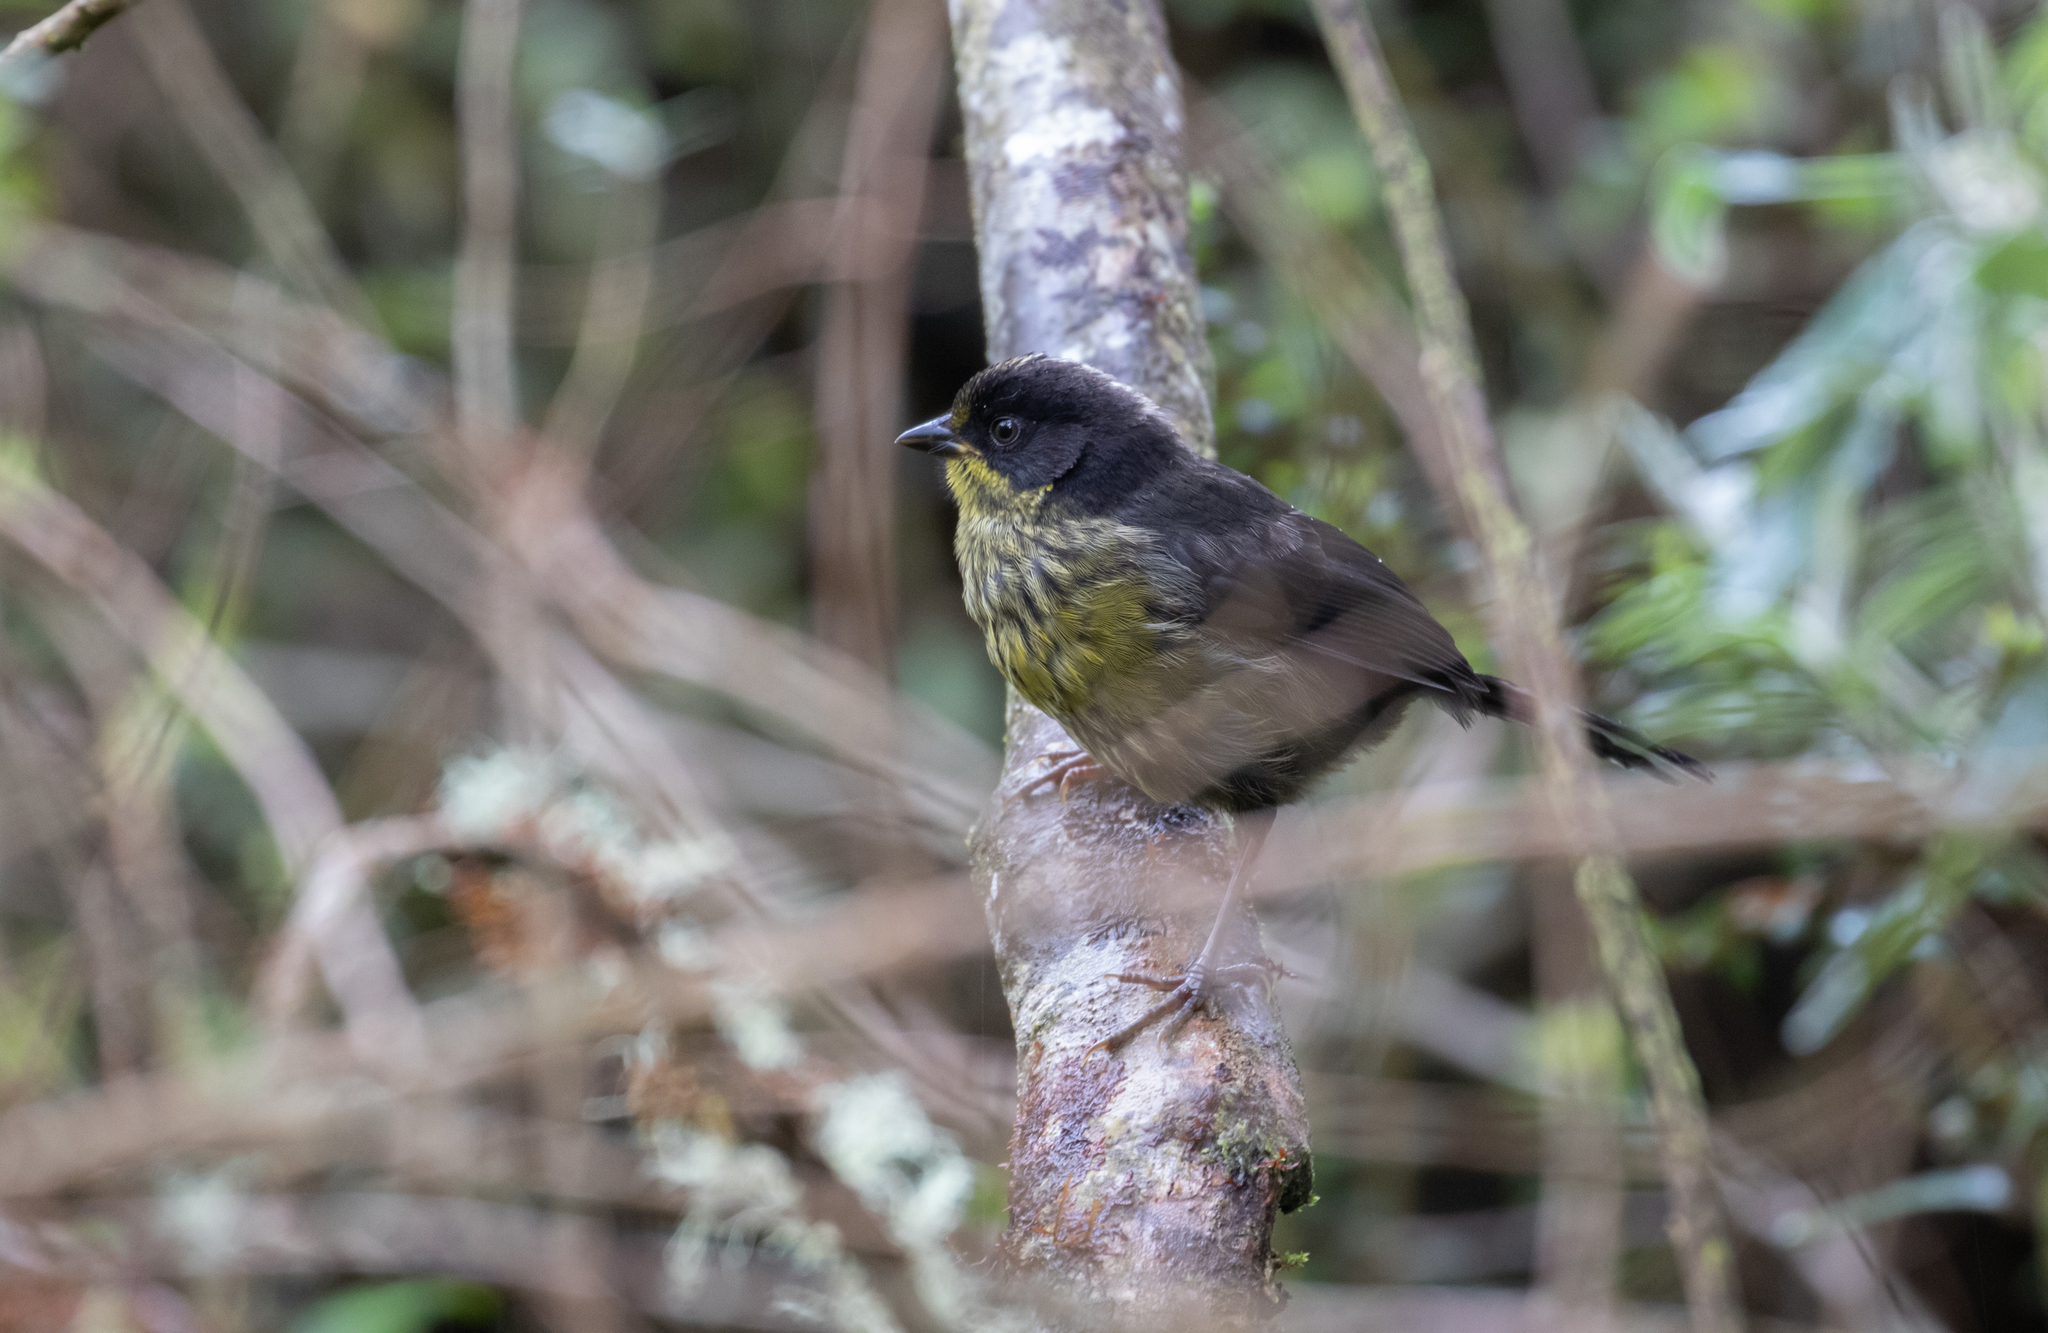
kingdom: Animalia
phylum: Chordata
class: Aves
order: Passeriformes
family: Passerellidae
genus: Atlapetes
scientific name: Atlapetes pallidinucha
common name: Pale-naped brushfinch
